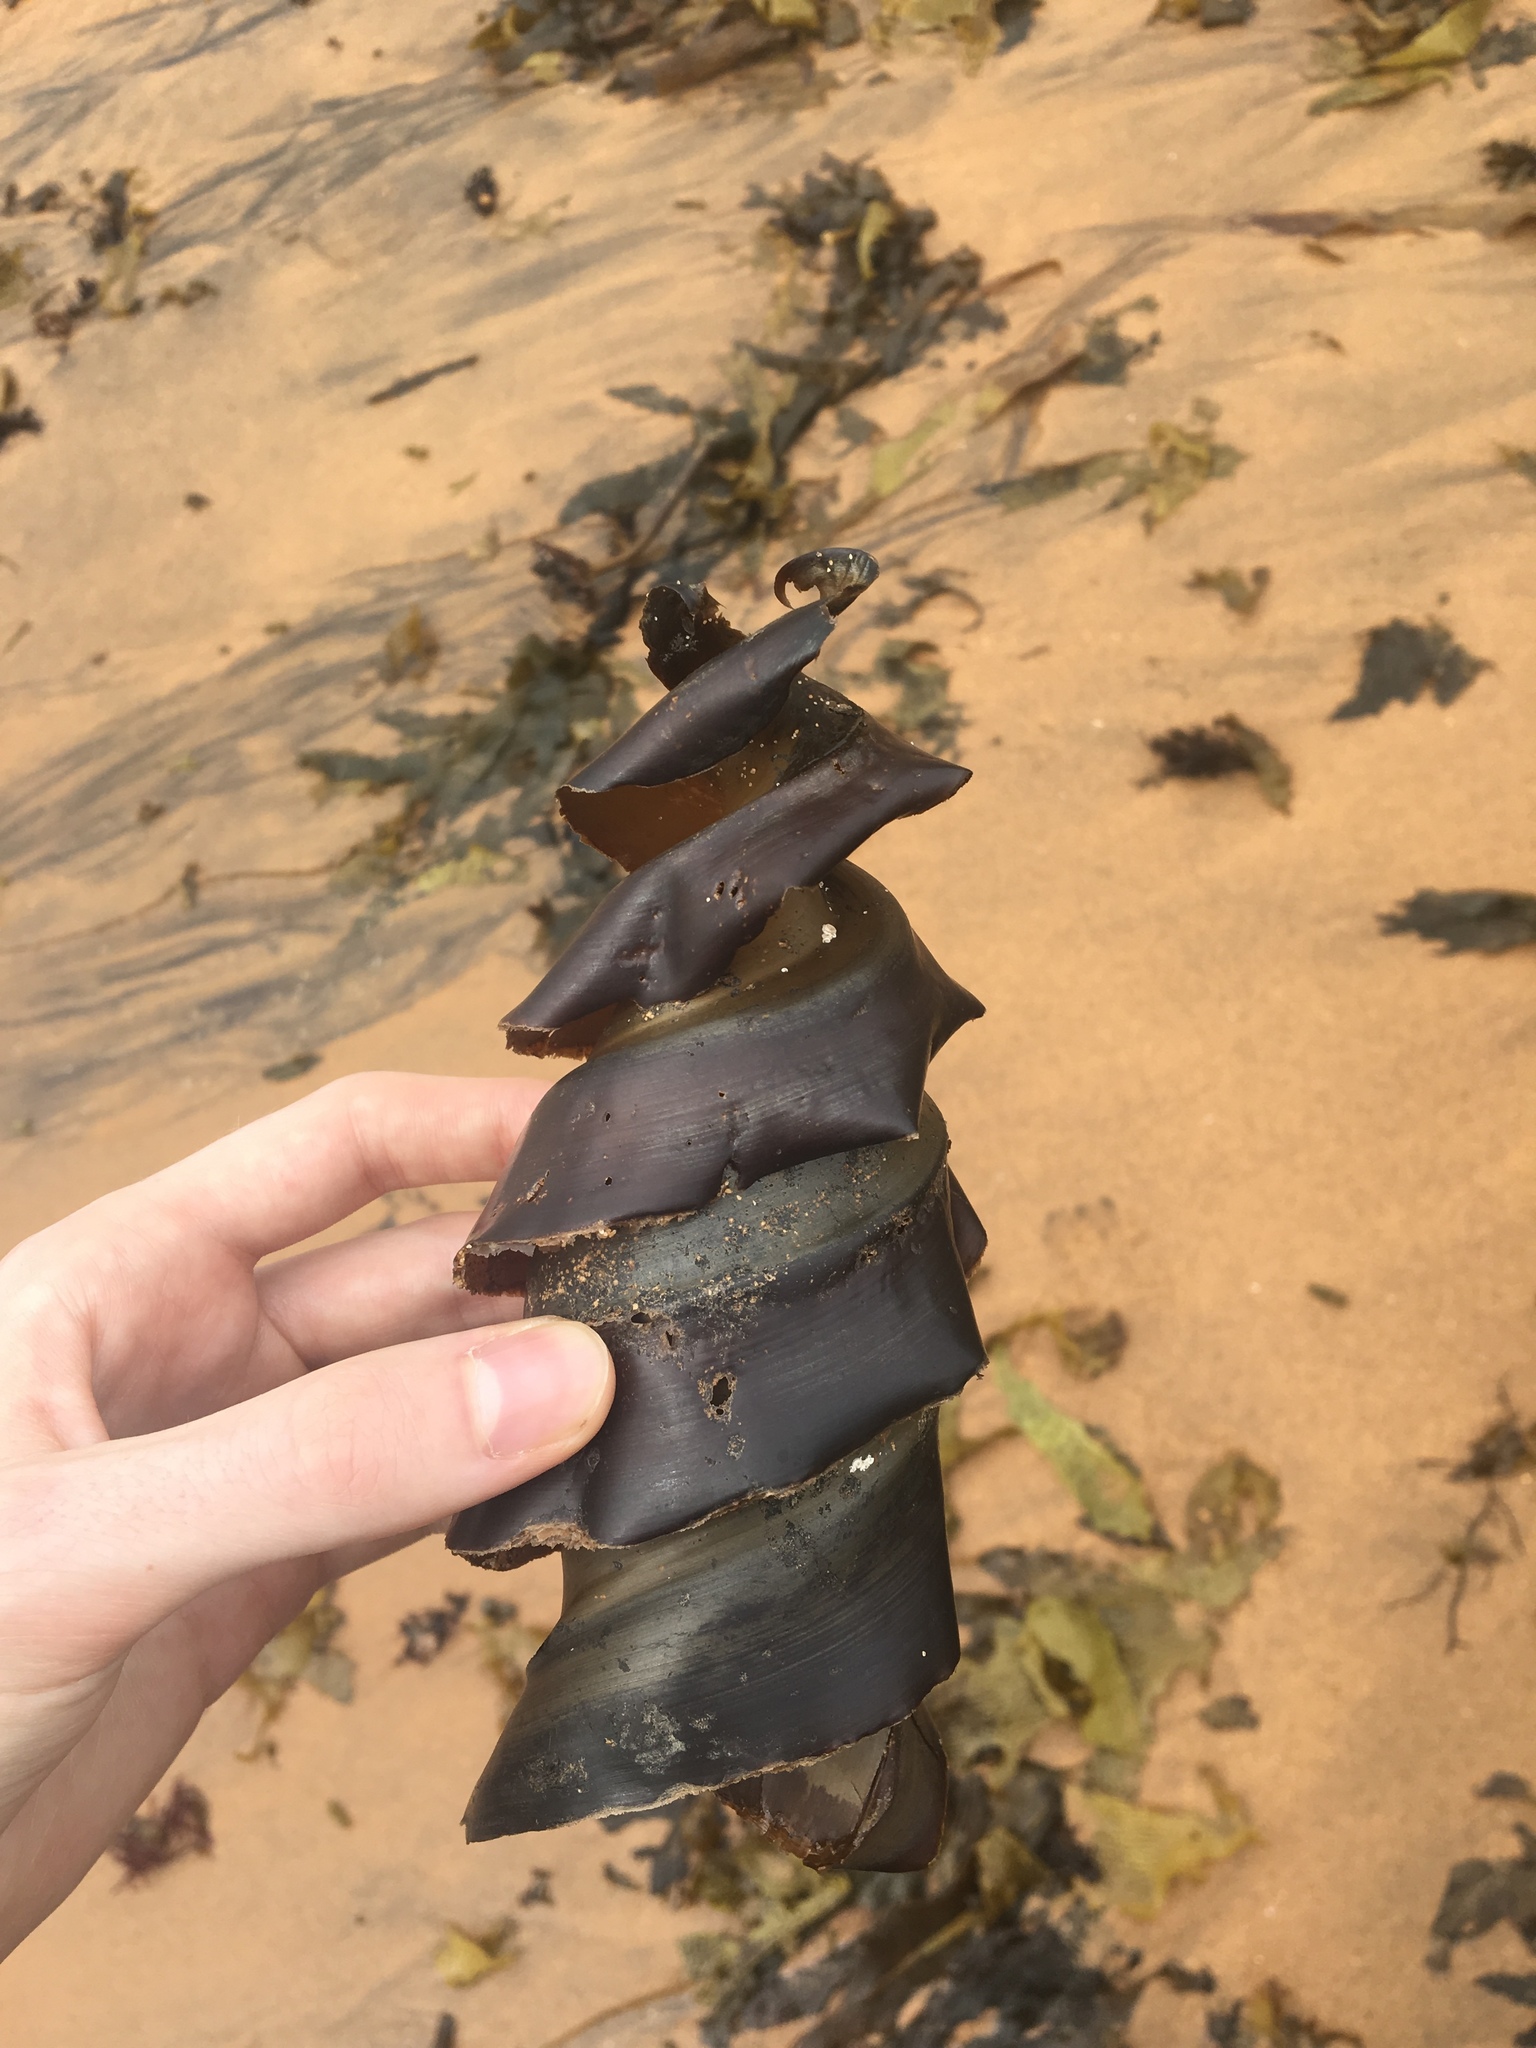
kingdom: Animalia
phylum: Chordata
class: Elasmobranchii
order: Heterodontiformes
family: Heterodontidae
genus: Heterodontus
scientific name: Heterodontus portusjacksoni
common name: Port jackson shark
